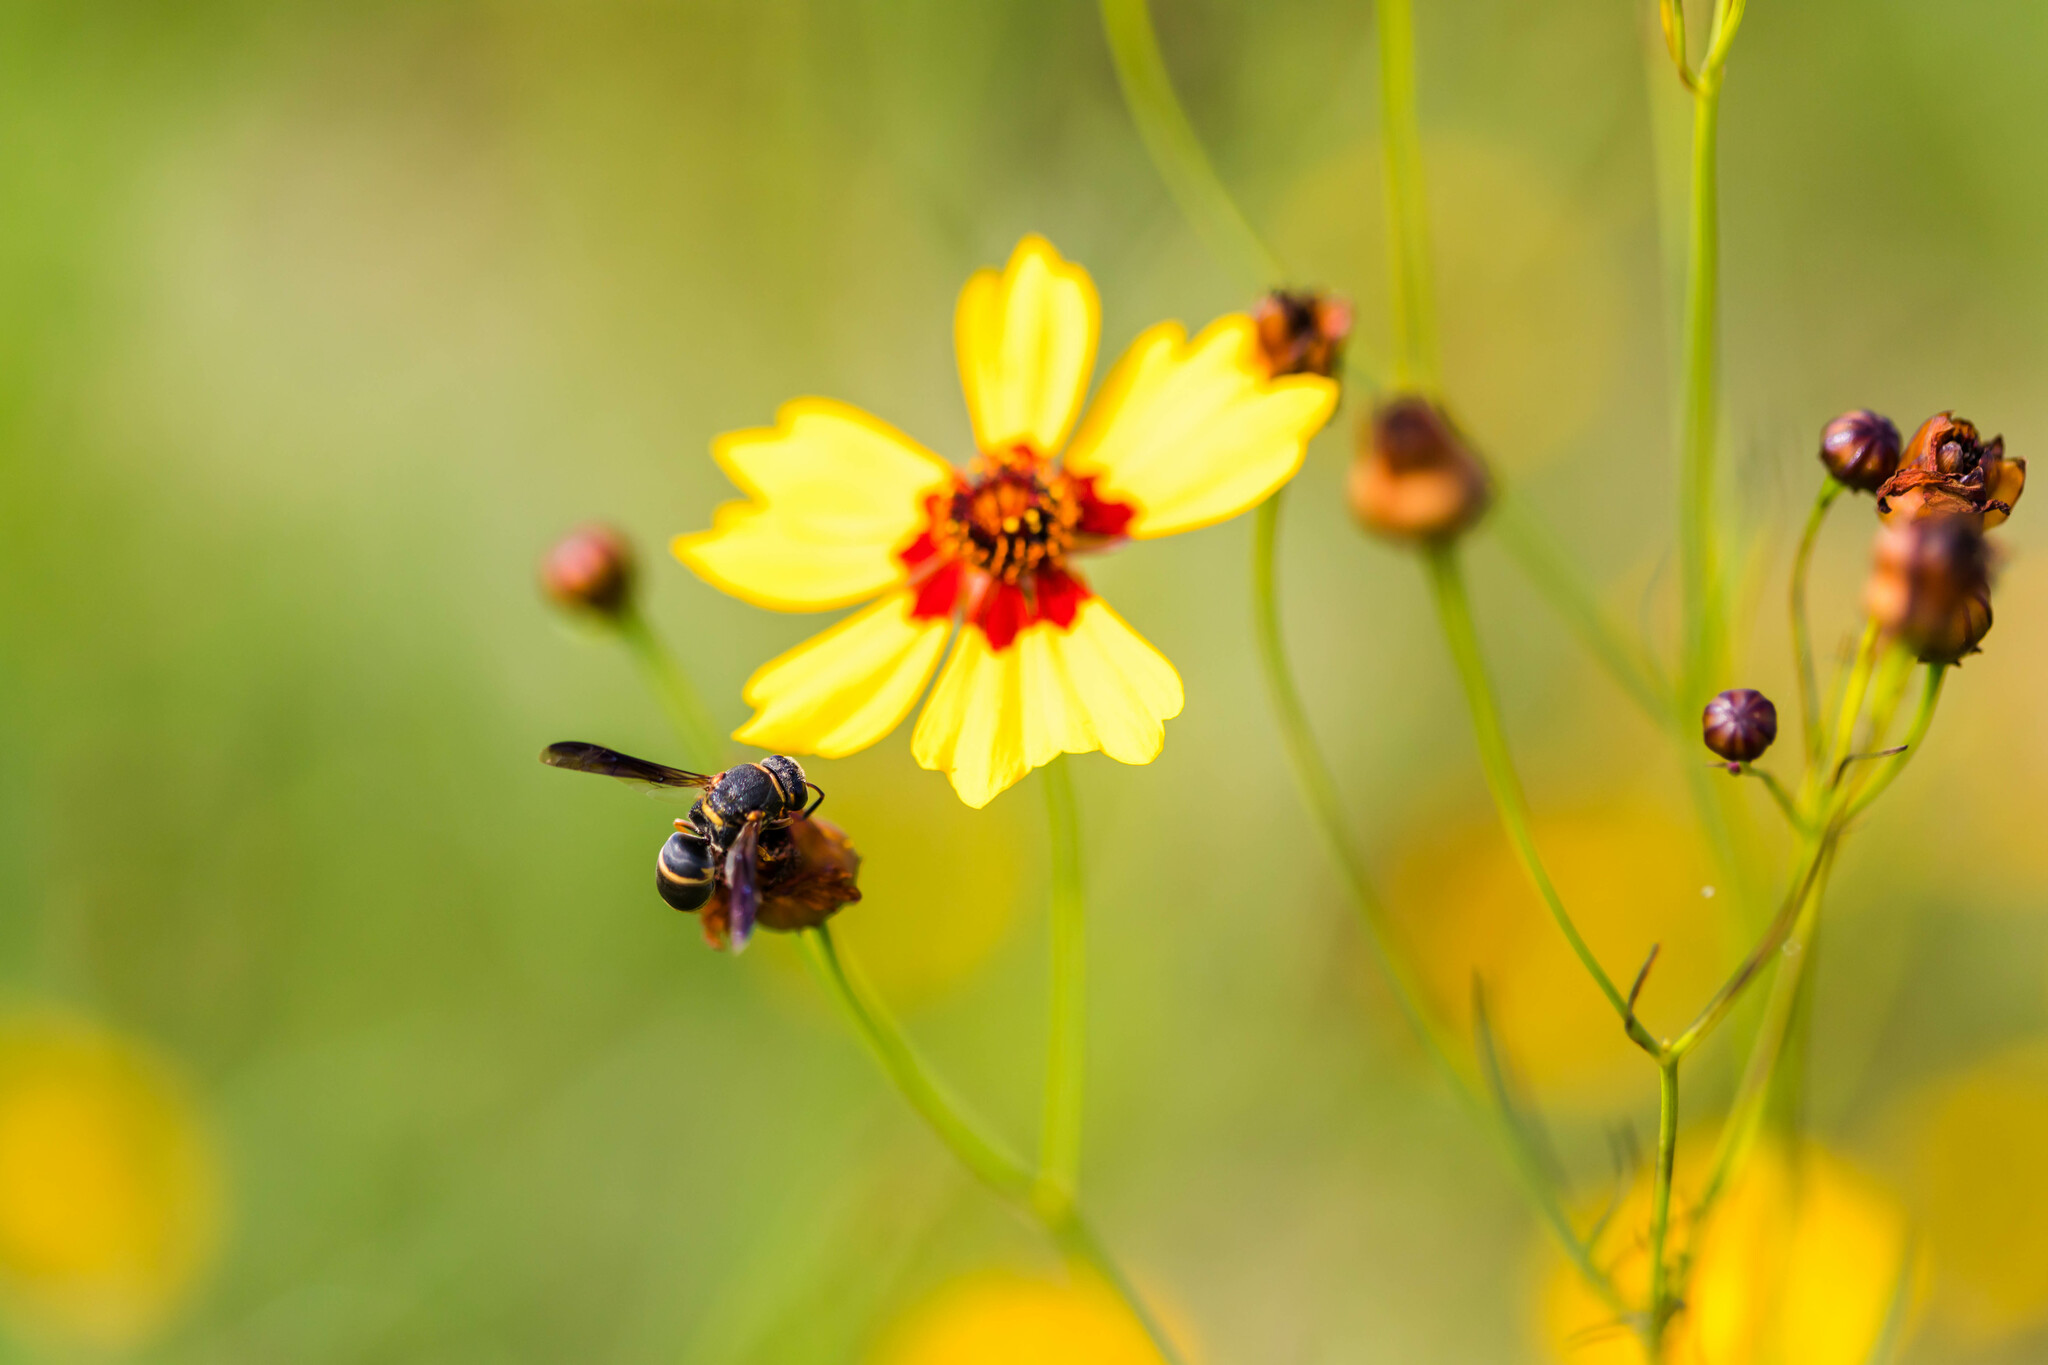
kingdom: Animalia
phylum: Arthropoda
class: Insecta
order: Hymenoptera
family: Eumenidae
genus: Euodynerus
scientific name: Euodynerus hidalgo
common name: Wasp
